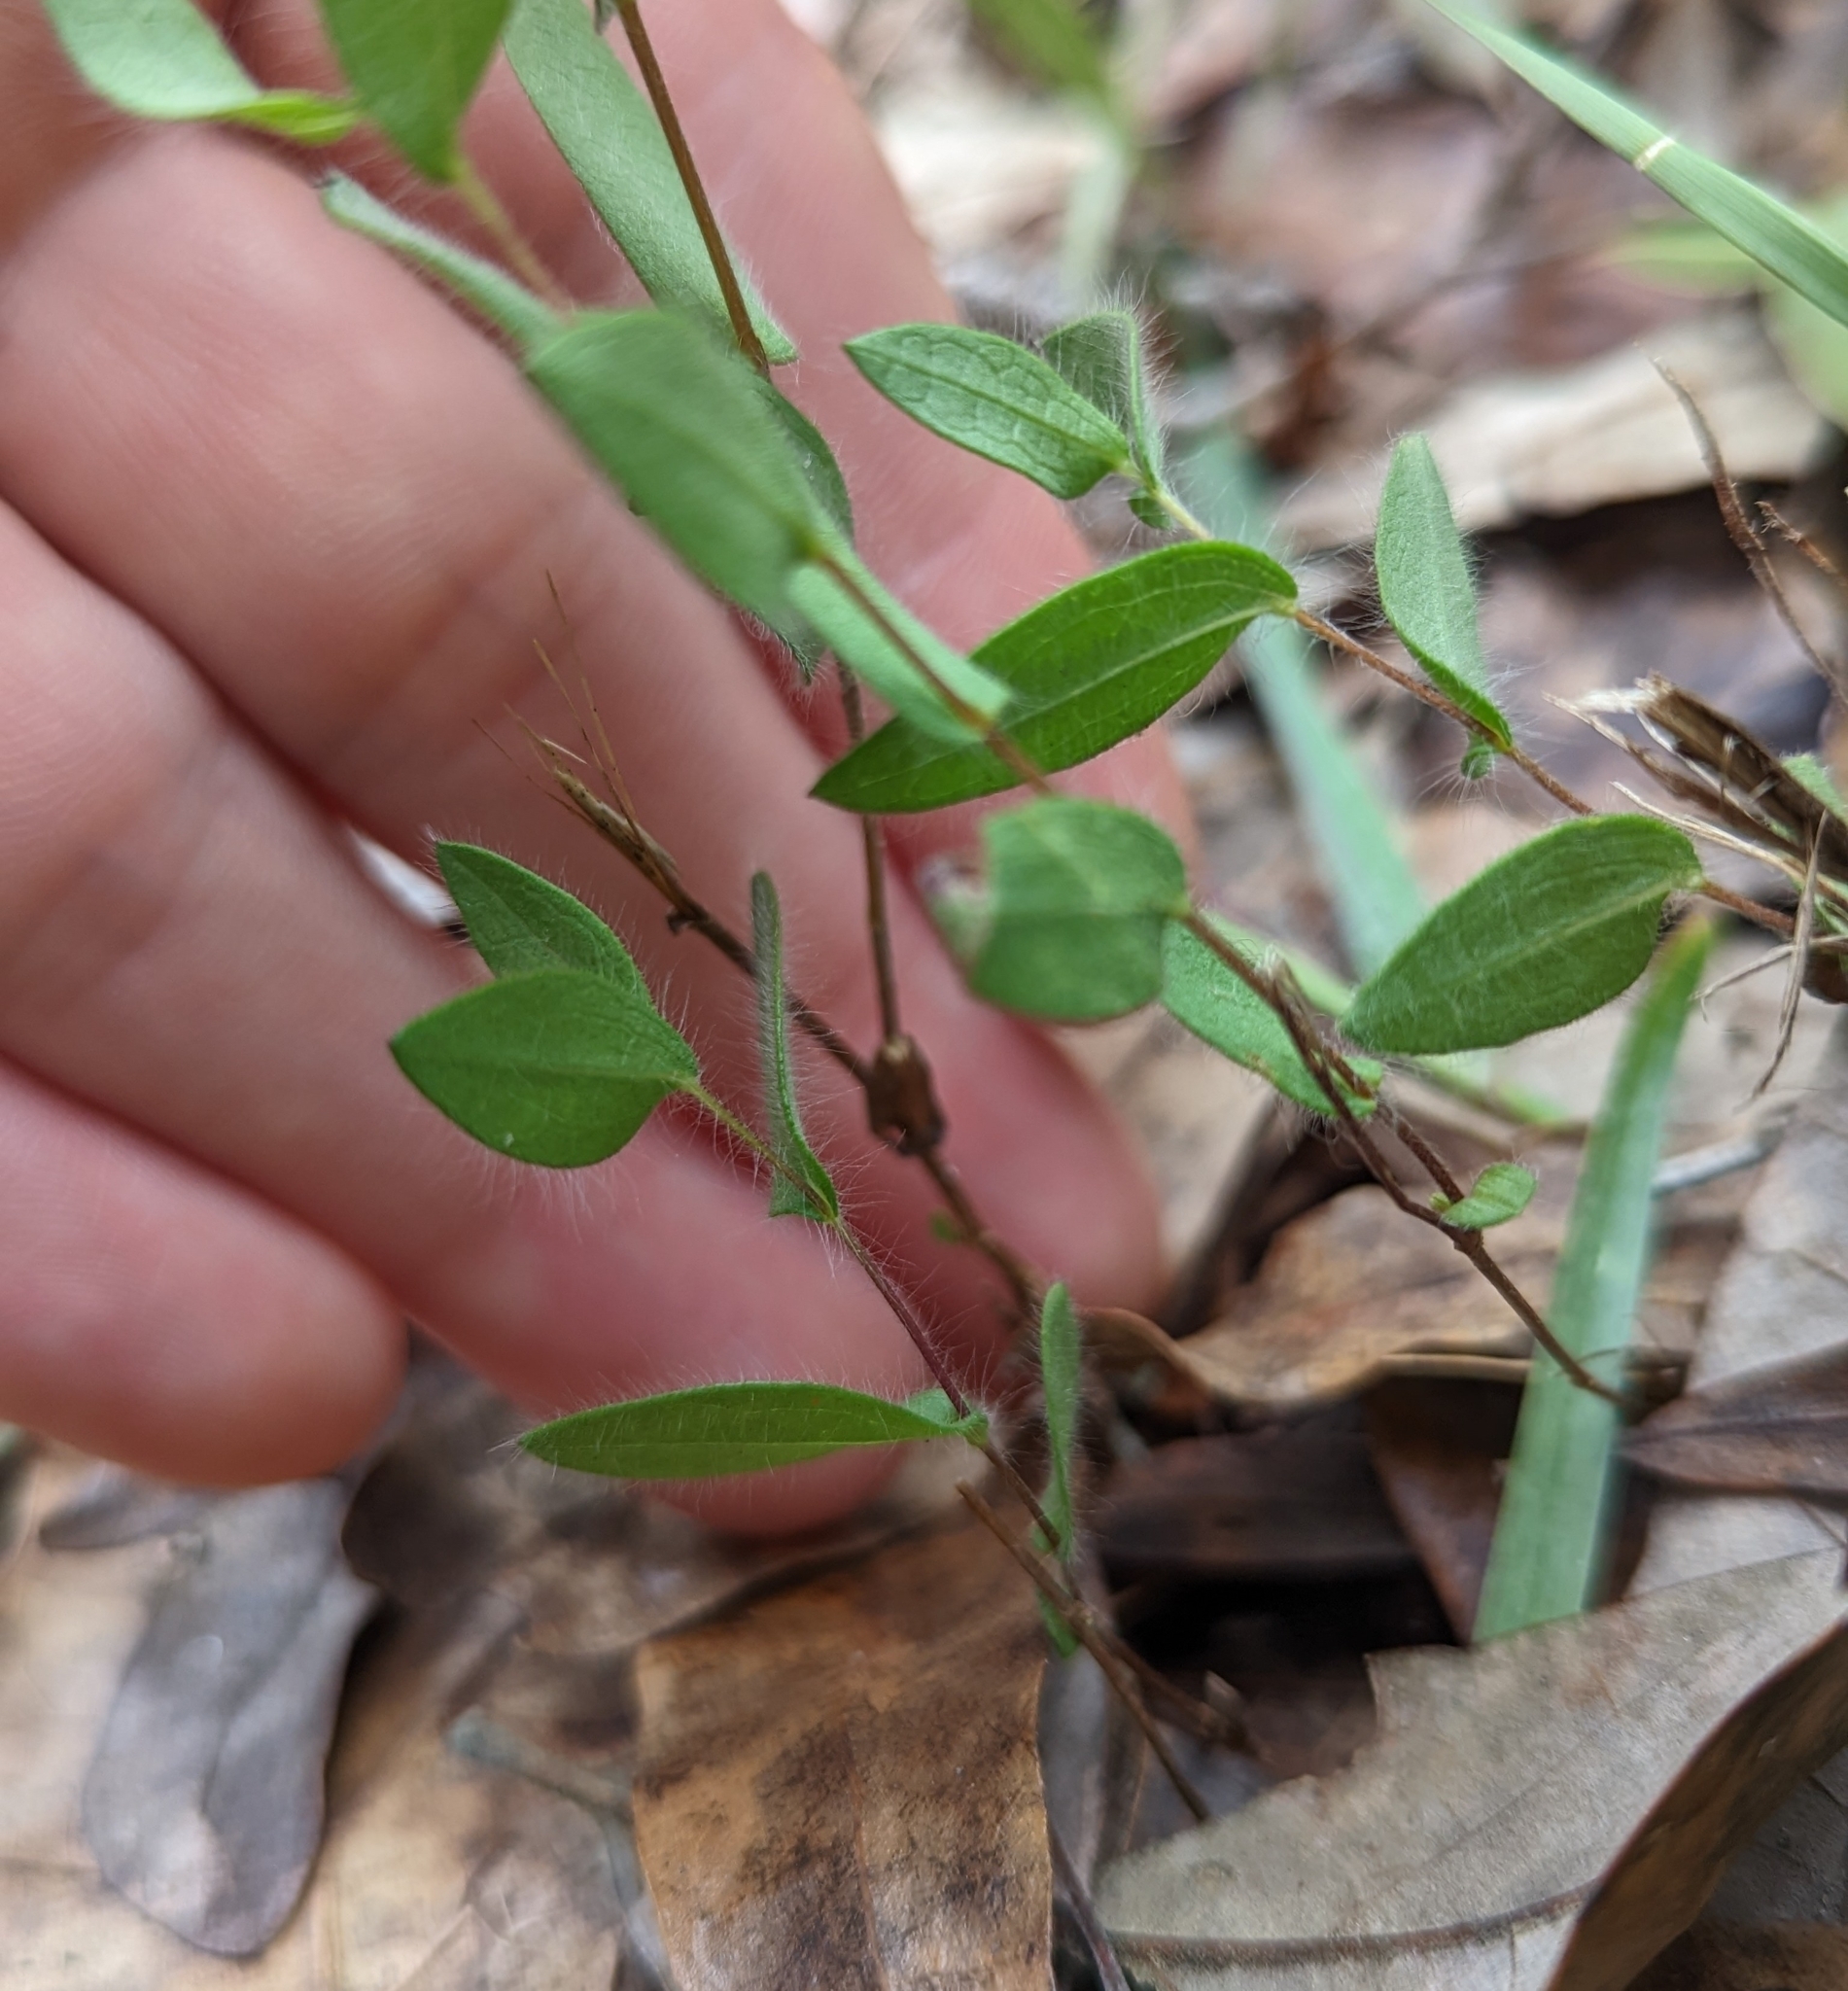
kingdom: Plantae
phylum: Tracheophyta
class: Magnoliopsida
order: Asterales
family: Asteraceae
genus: Symphyotrichum
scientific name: Symphyotrichum concolor
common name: Eastern silver aster
